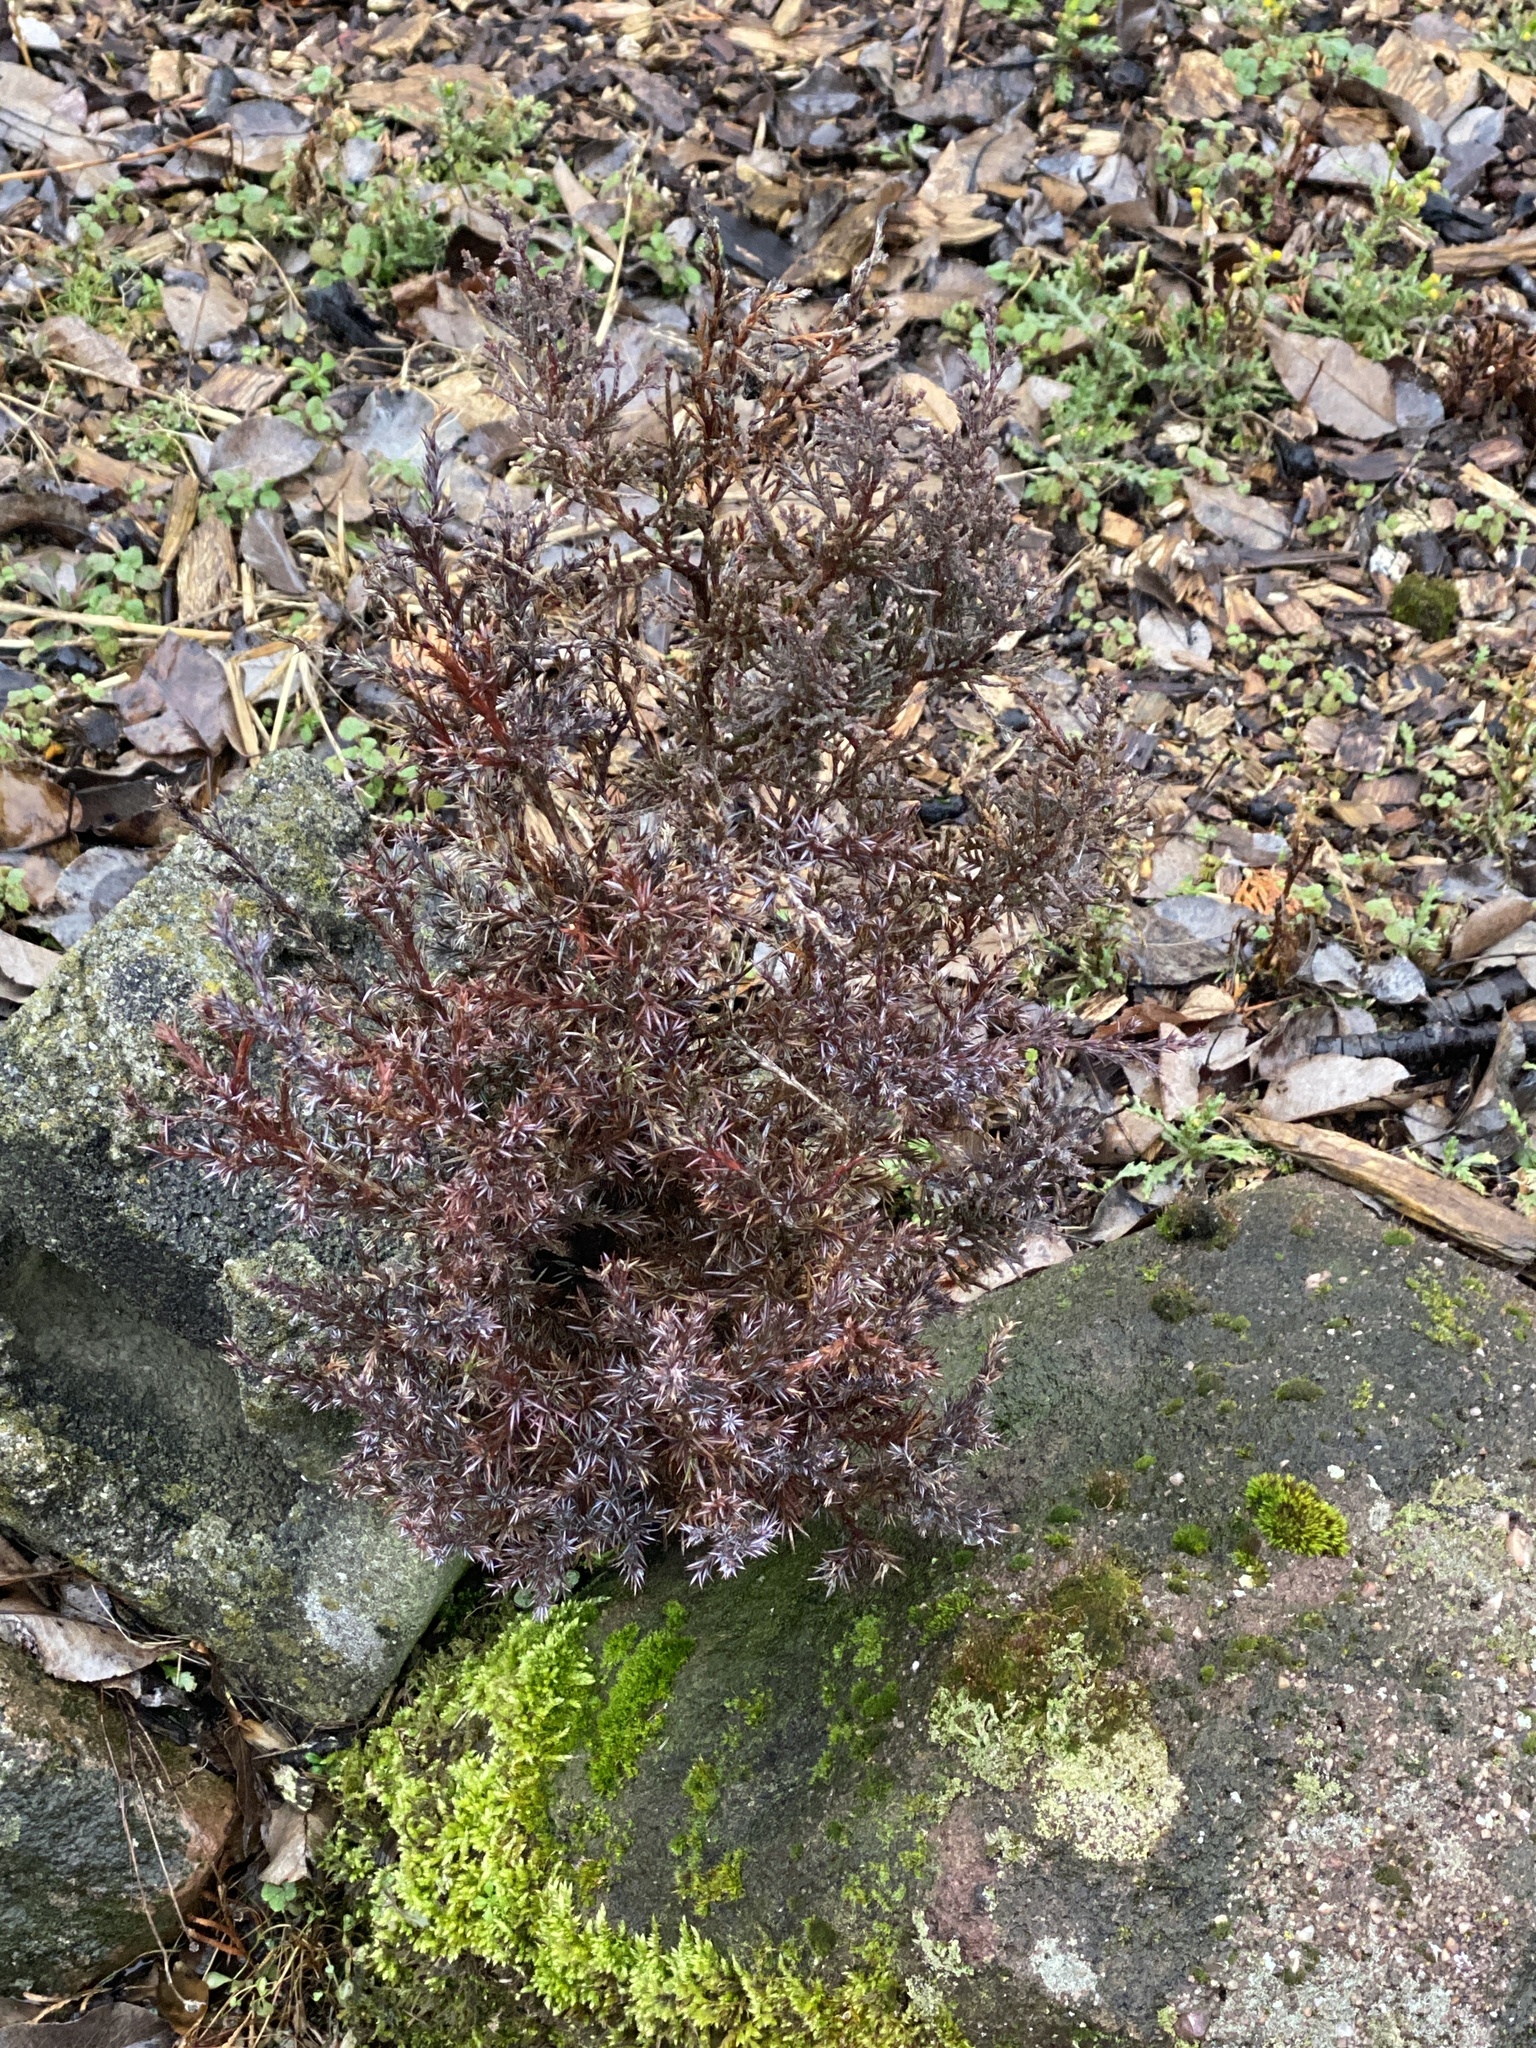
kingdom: Plantae
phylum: Tracheophyta
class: Pinopsida
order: Pinales
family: Cupressaceae
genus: Juniperus
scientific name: Juniperus virginiana
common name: Red juniper
